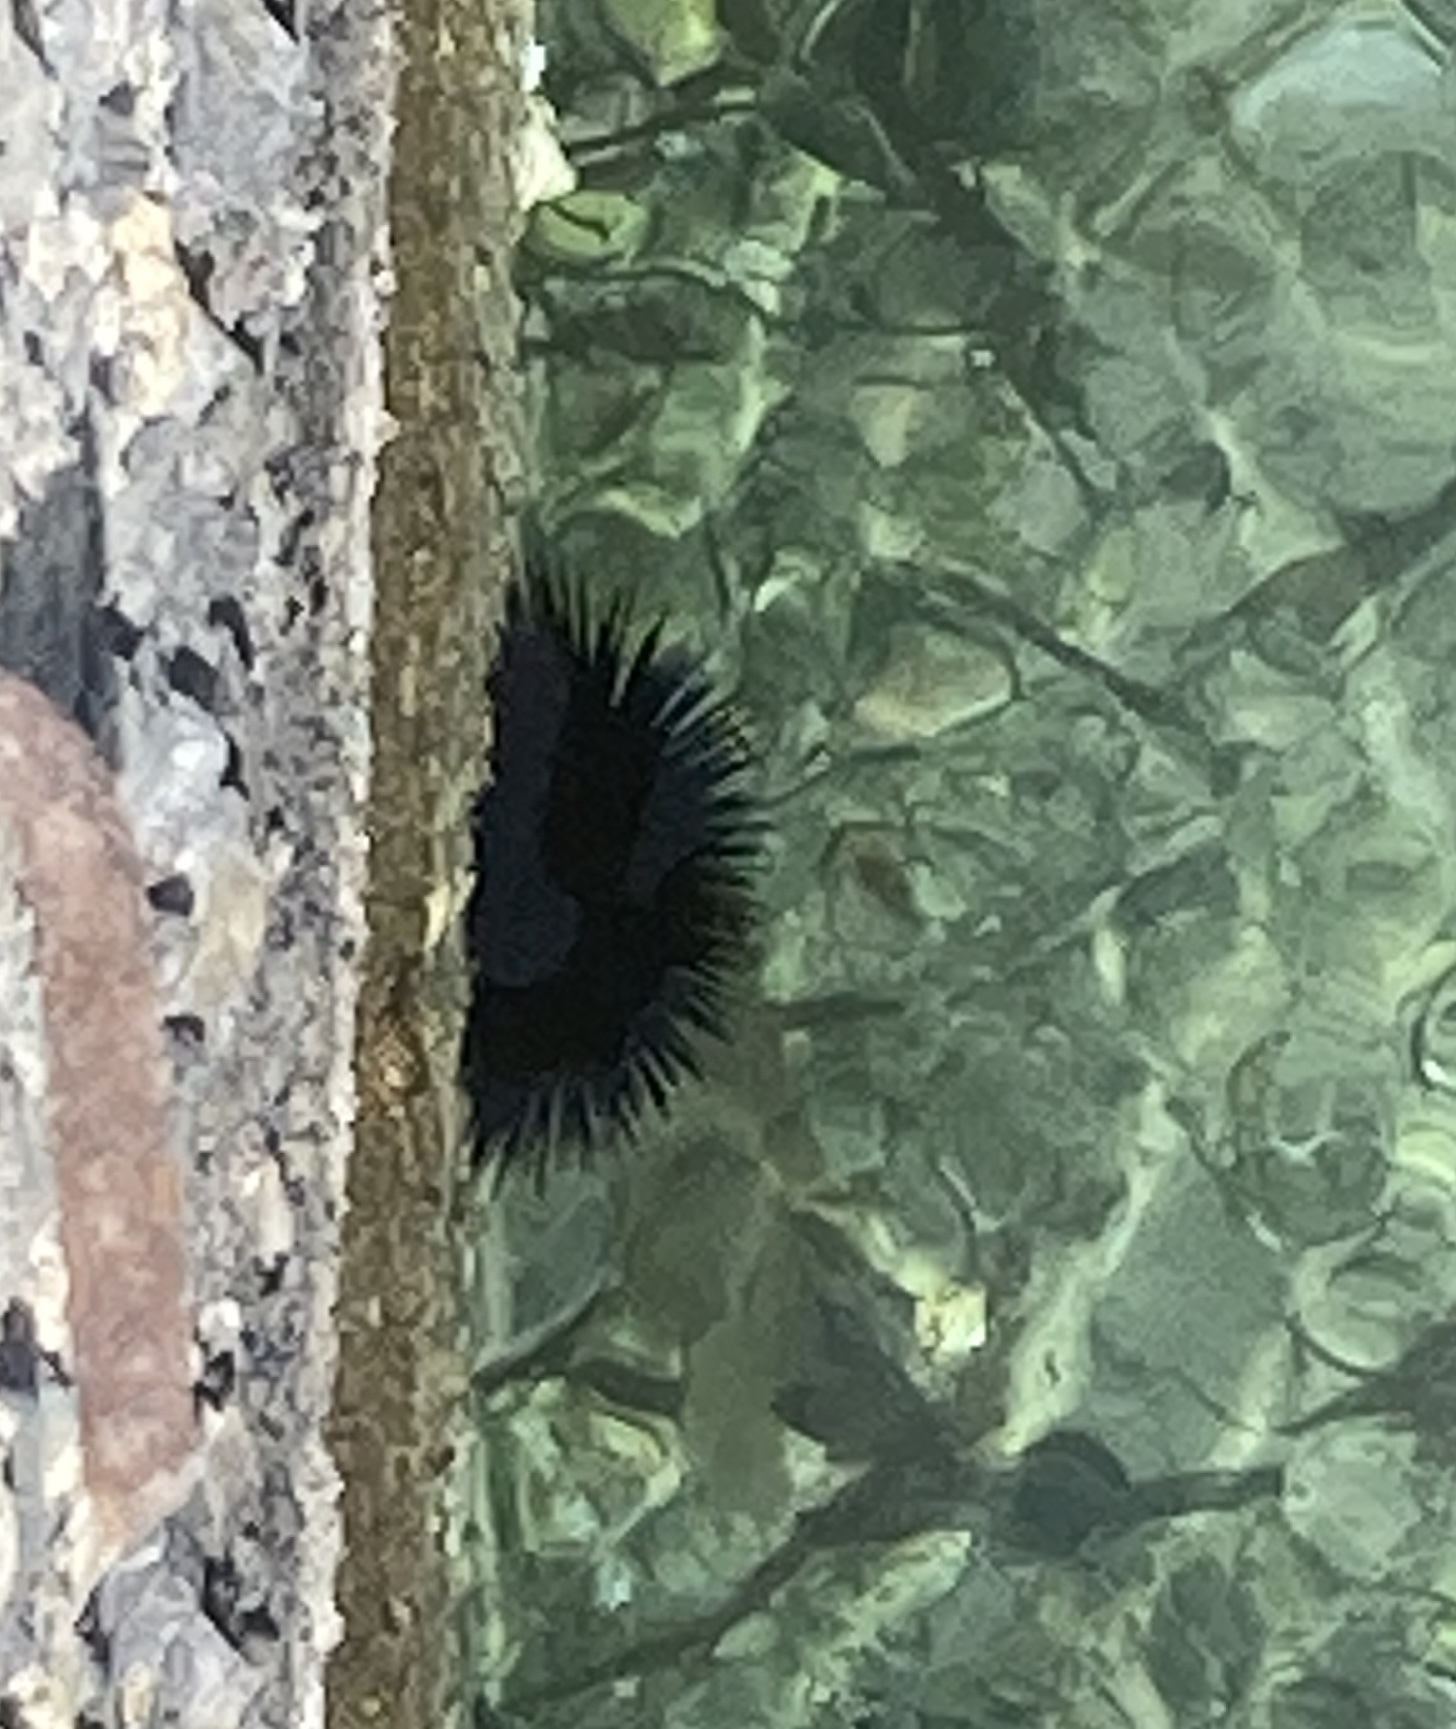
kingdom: Animalia
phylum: Echinodermata
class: Echinoidea
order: Arbacioida
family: Arbaciidae
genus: Arbacia
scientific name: Arbacia lixula
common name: Black sea urchin
